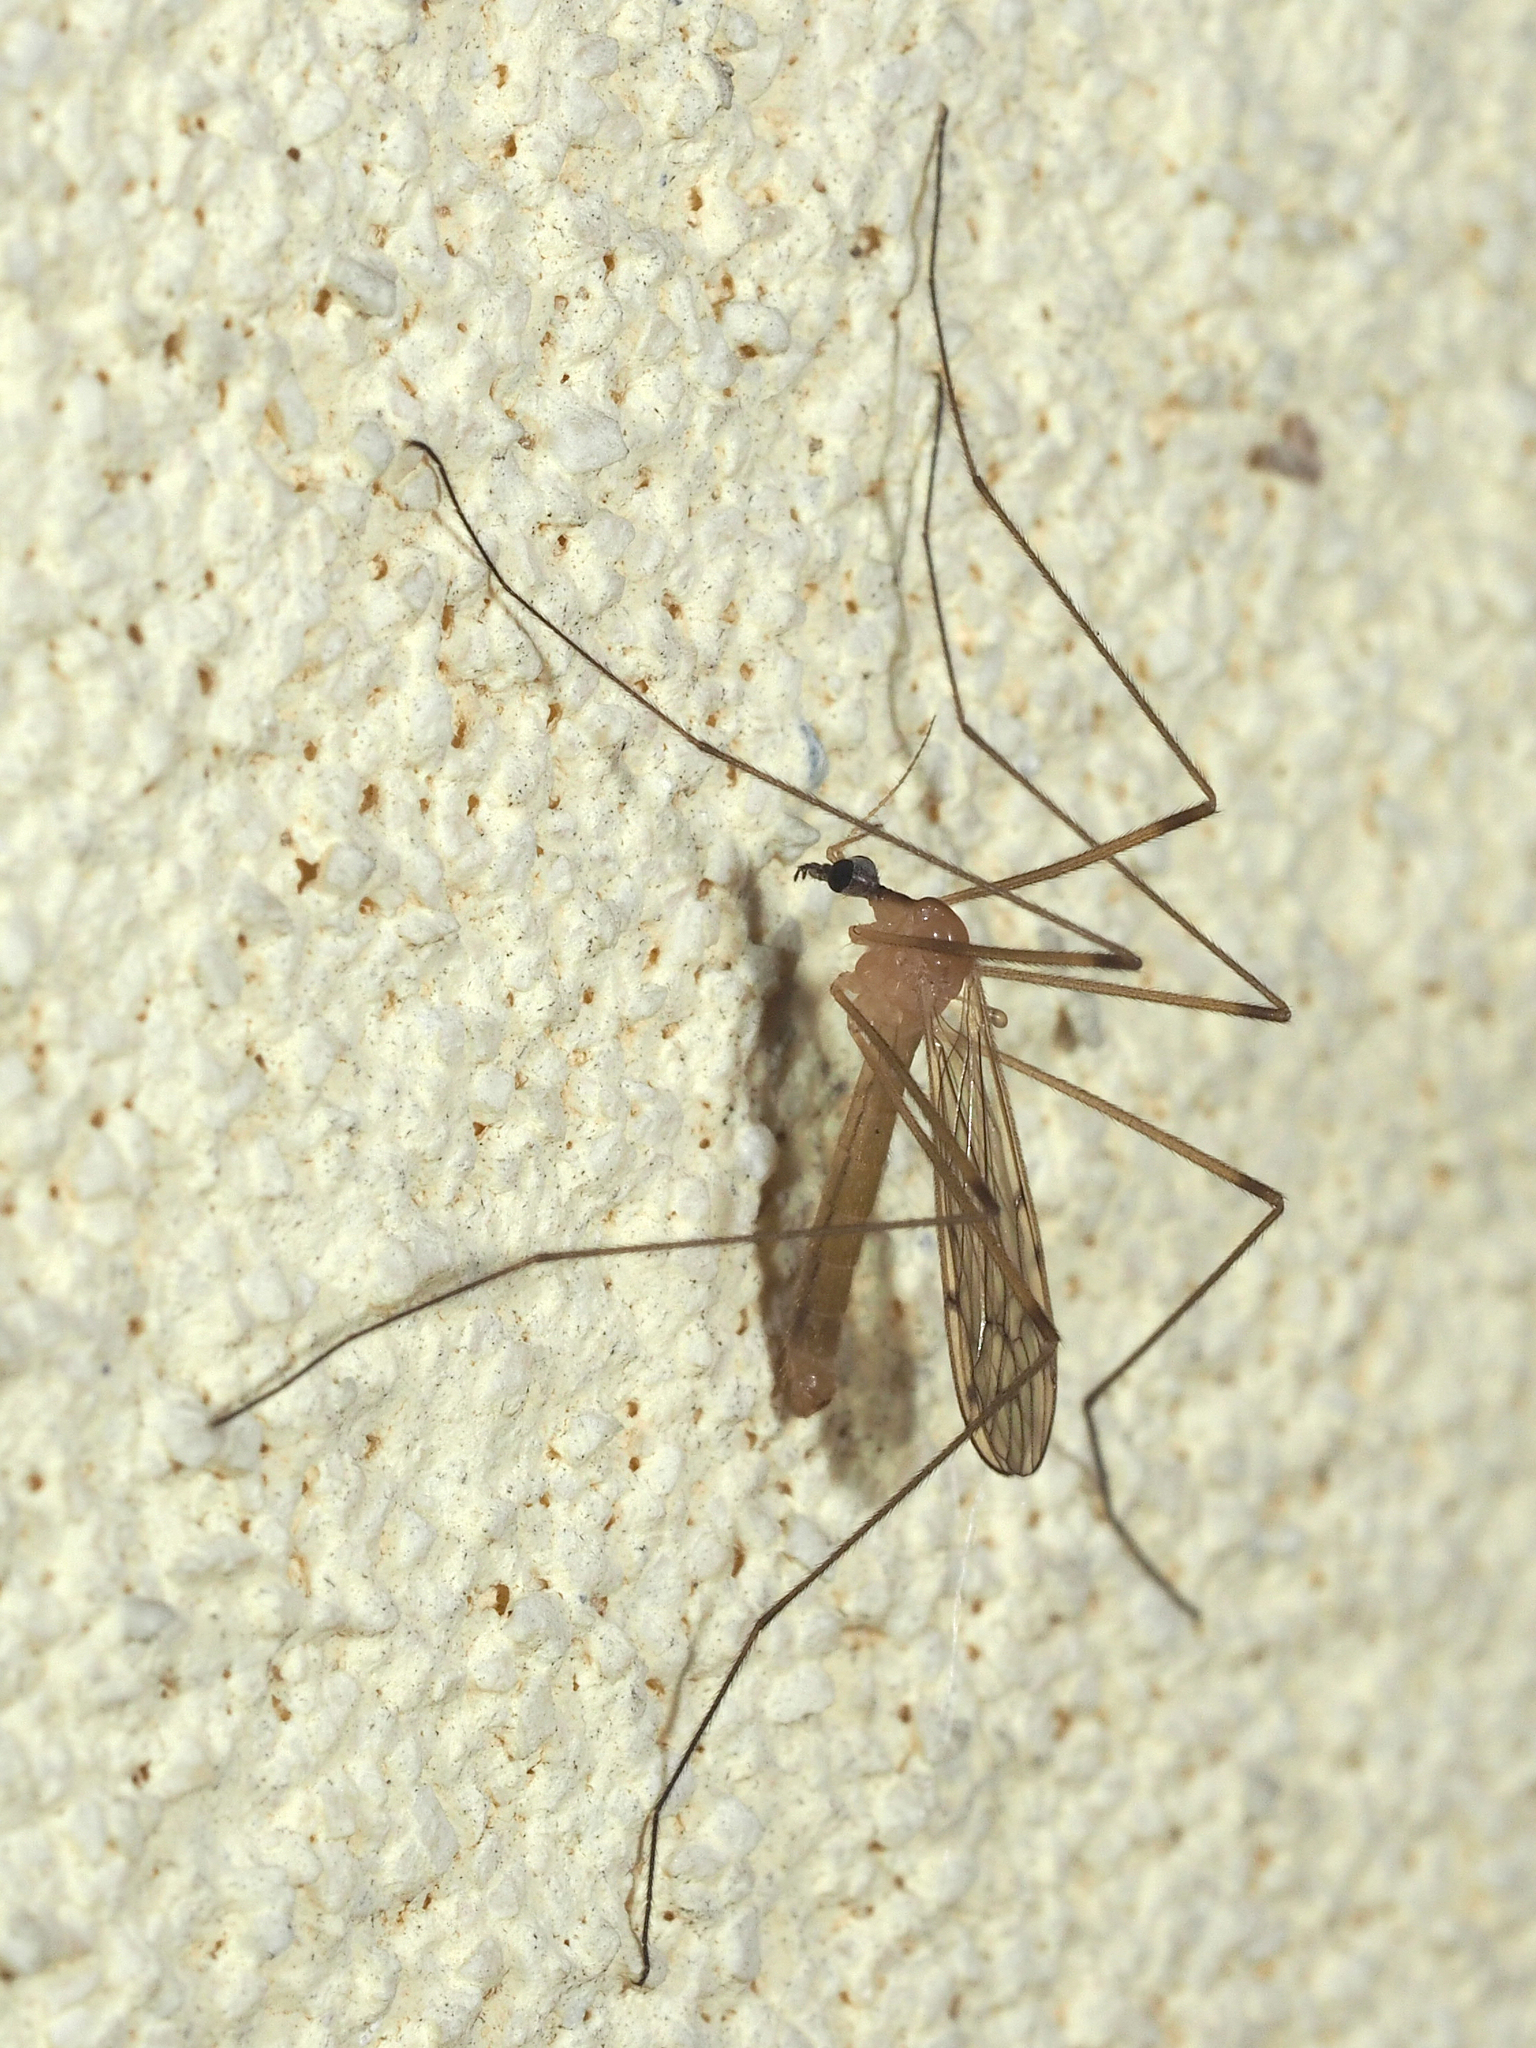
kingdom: Animalia
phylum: Arthropoda
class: Insecta
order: Diptera
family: Limoniidae
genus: Limonia
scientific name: Limonia phragmitidis
